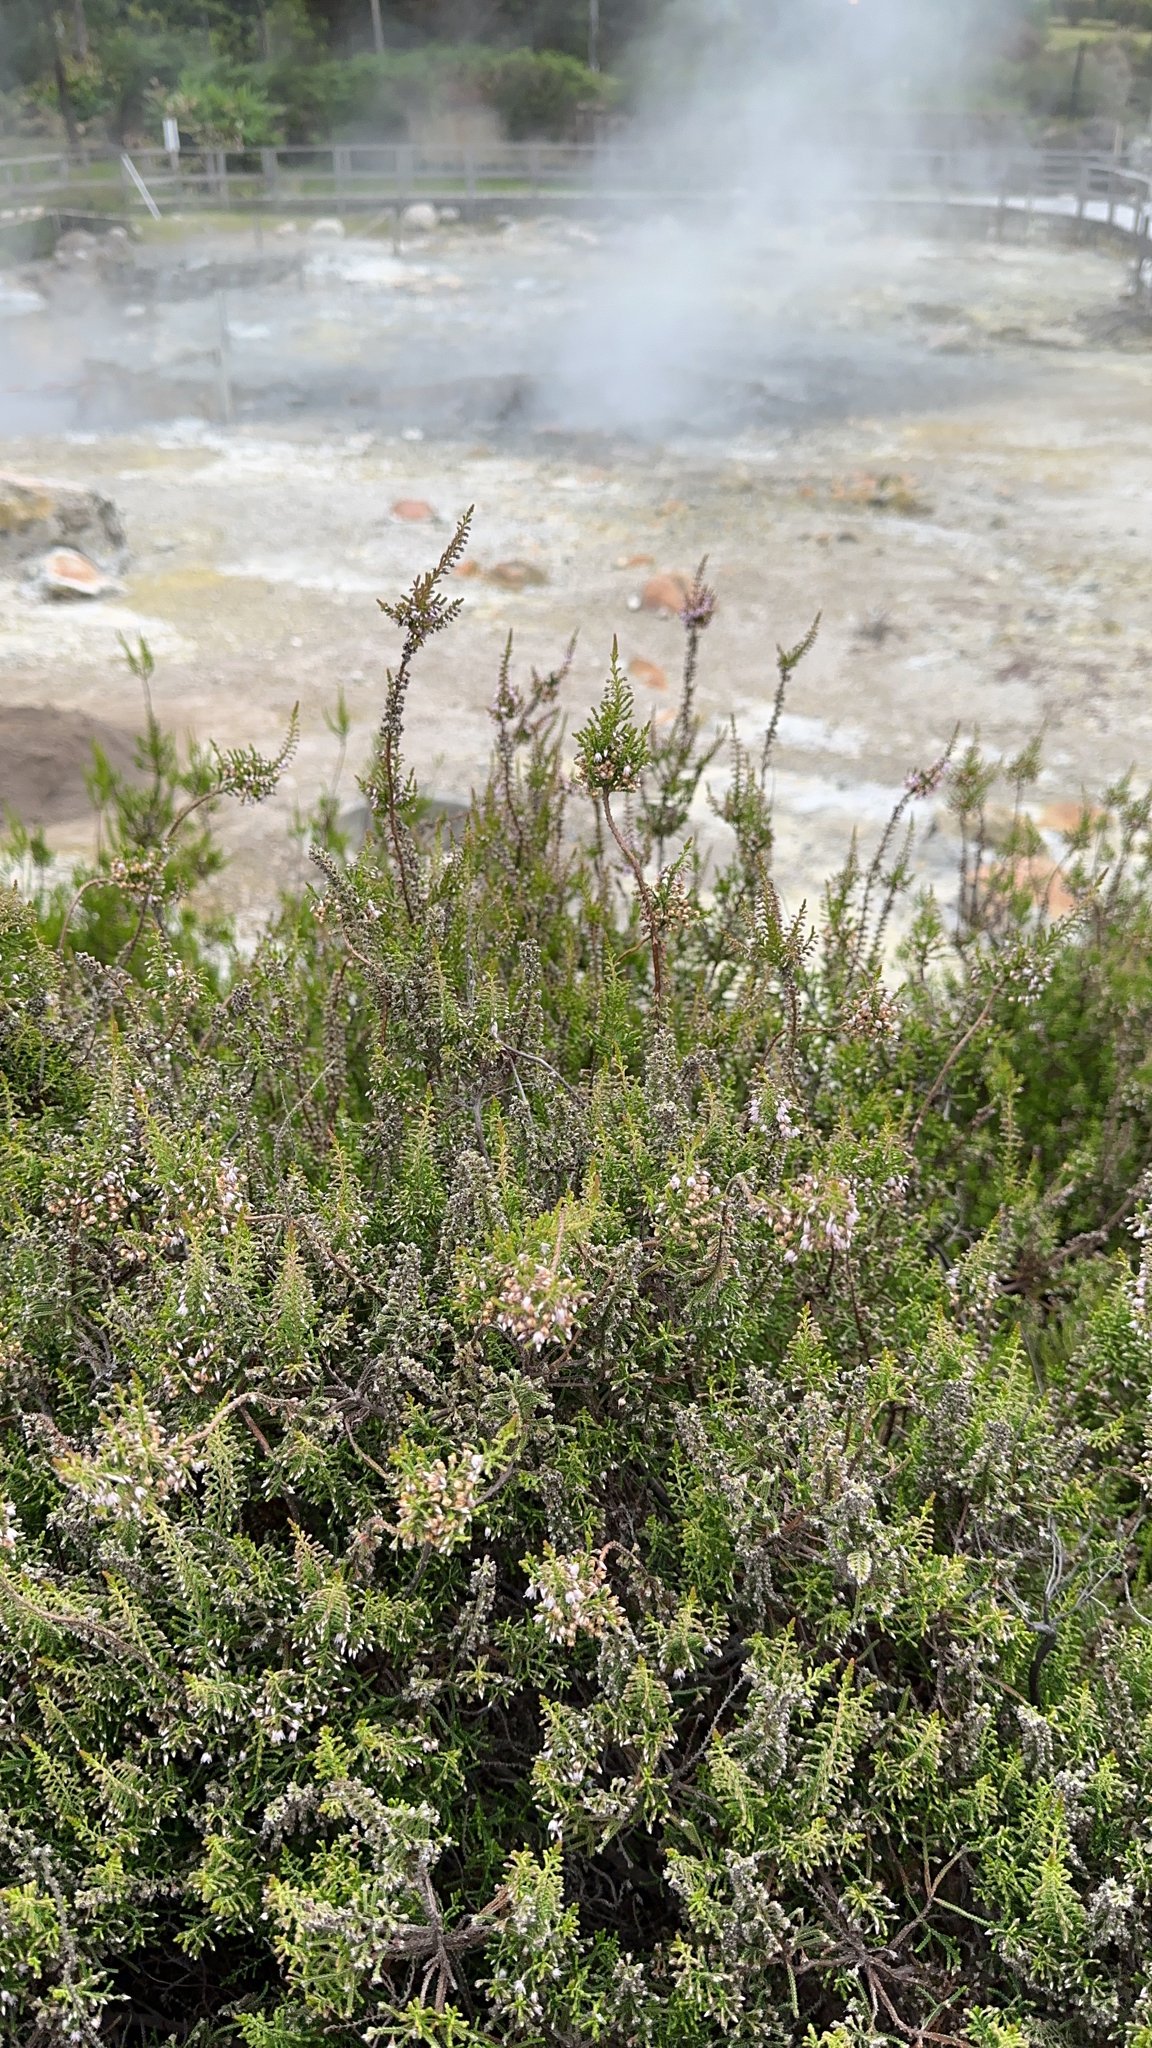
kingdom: Plantae
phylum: Tracheophyta
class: Magnoliopsida
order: Ericales
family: Ericaceae
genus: Calluna
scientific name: Calluna vulgaris
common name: Heather
